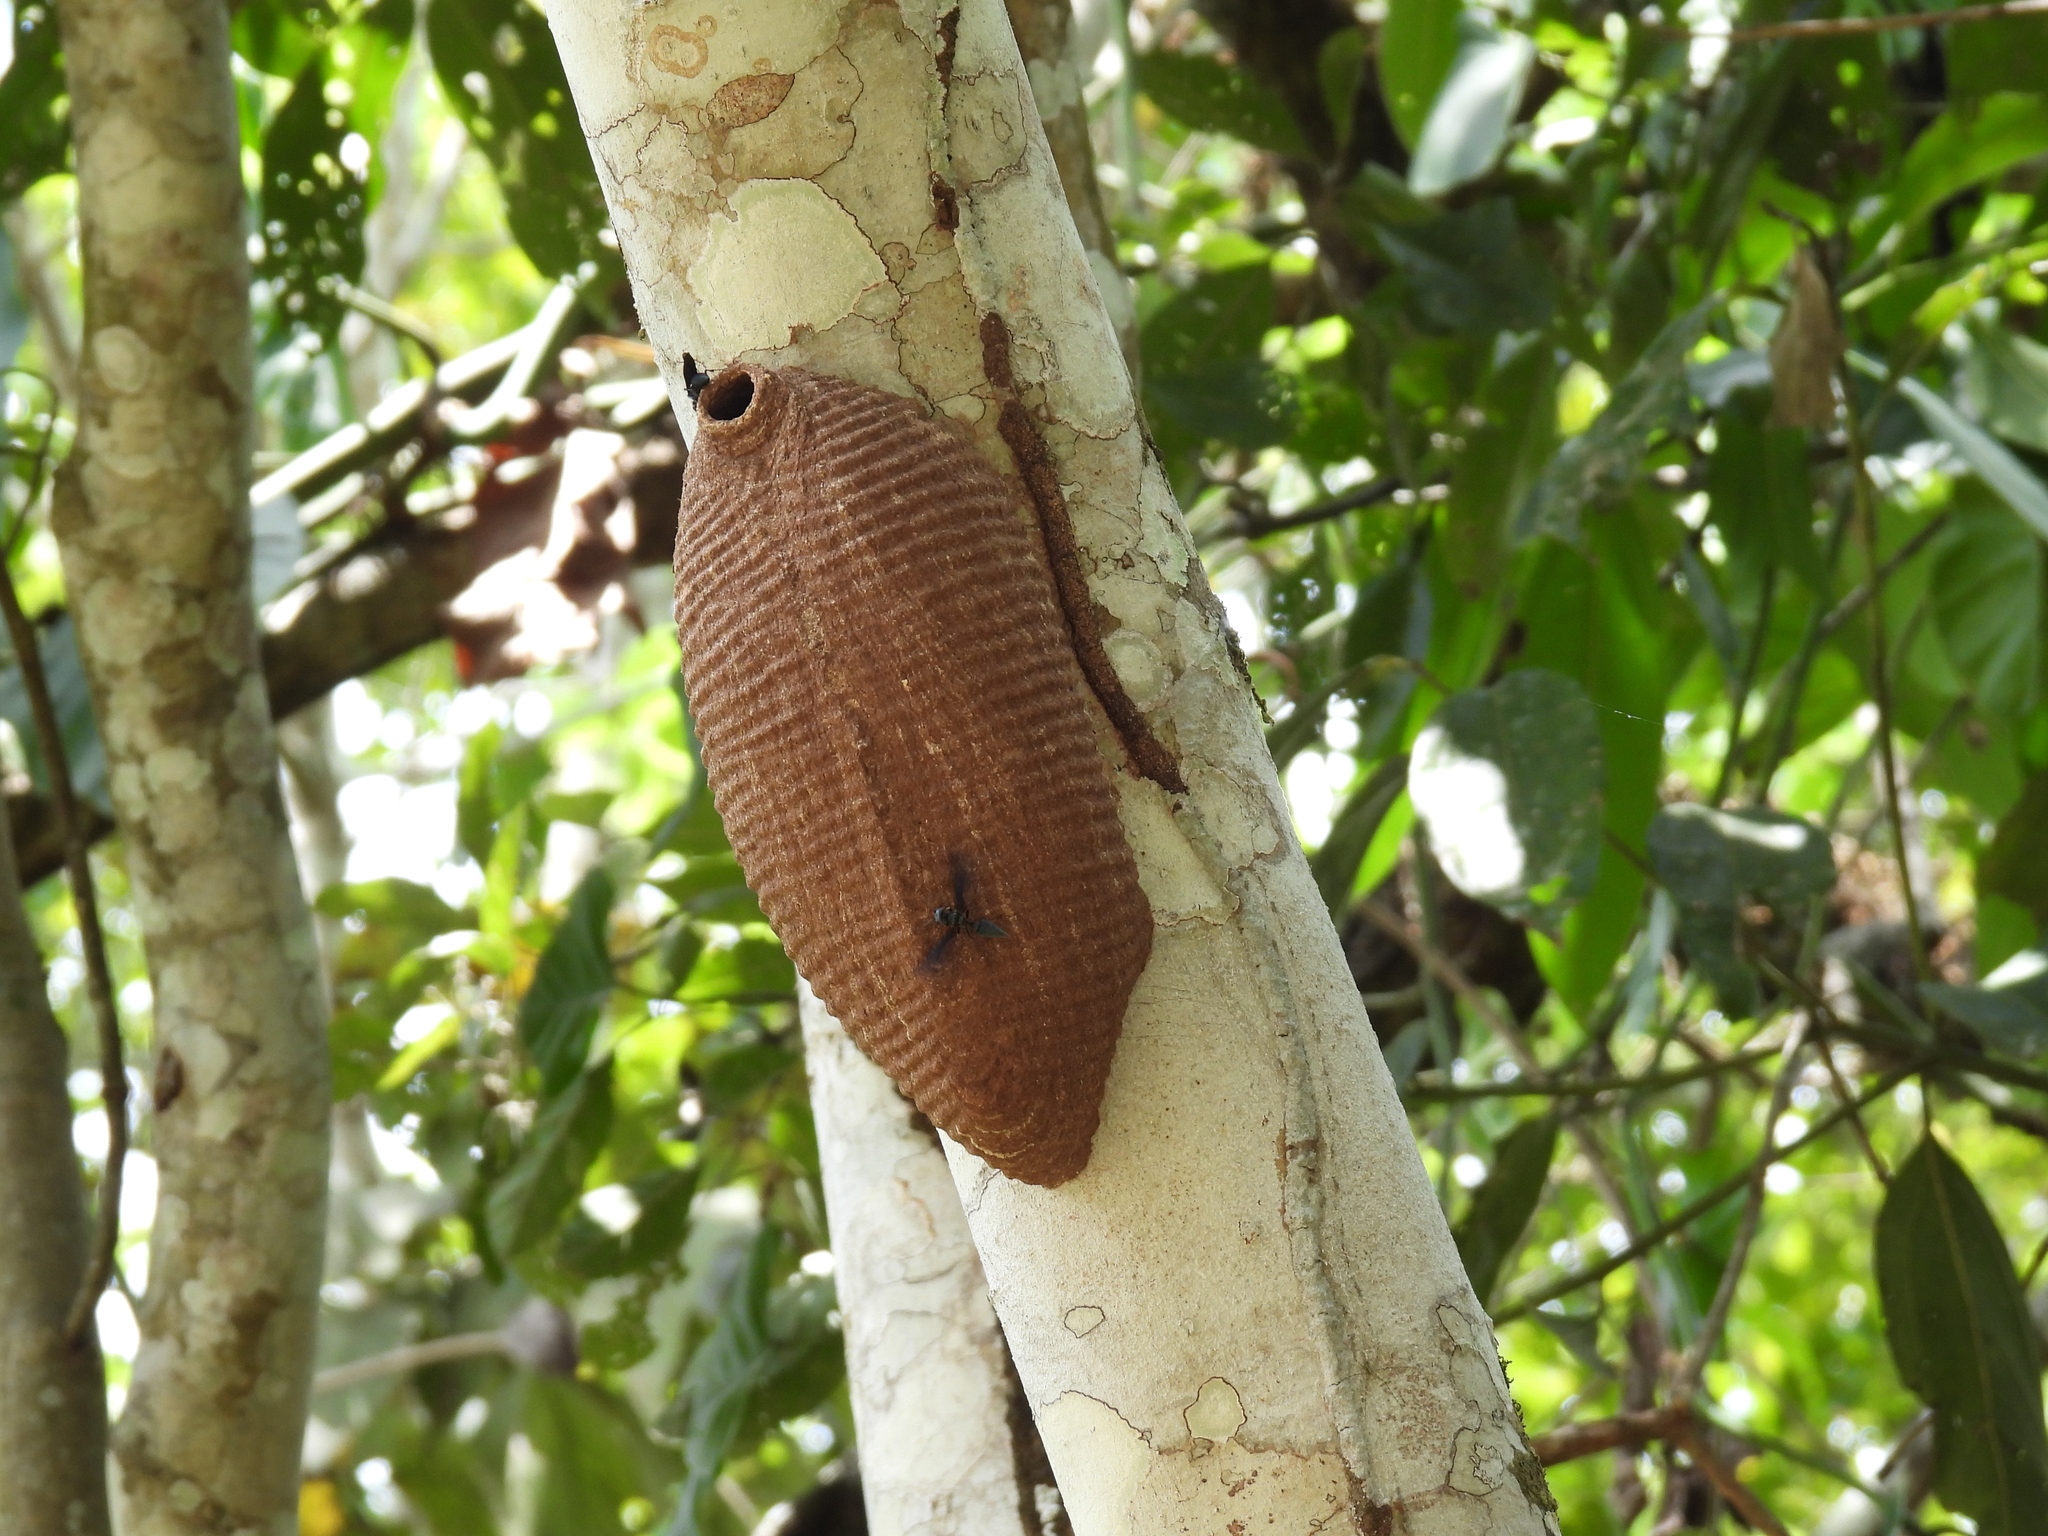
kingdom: Animalia
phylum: Arthropoda
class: Insecta
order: Hymenoptera
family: Vespidae
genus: Synoeca
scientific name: Synoeca septentrionalis
